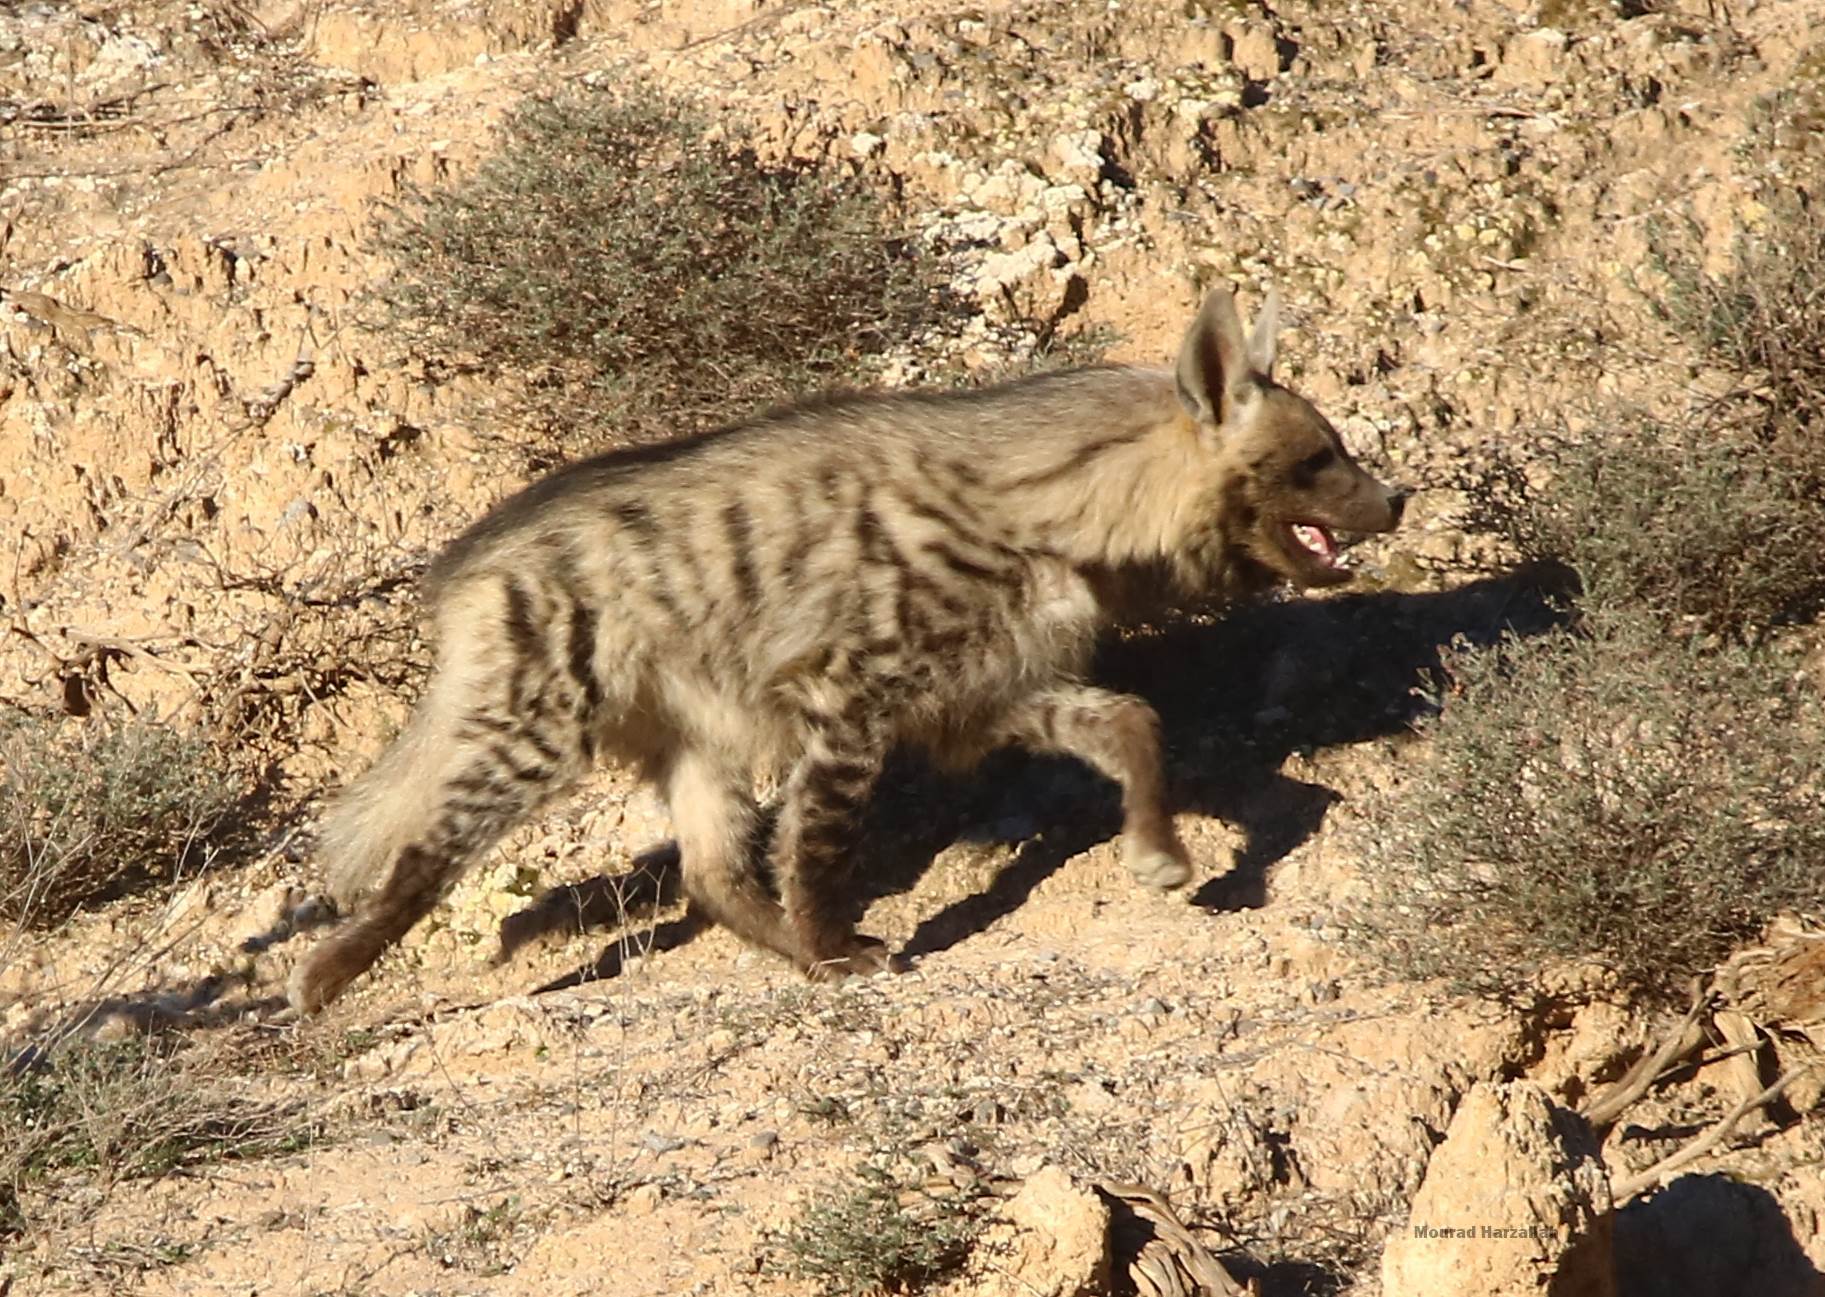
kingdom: Animalia
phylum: Chordata
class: Mammalia
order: Carnivora
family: Hyaenidae
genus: Hyaena
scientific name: Hyaena hyaena
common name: Striped hyaena
